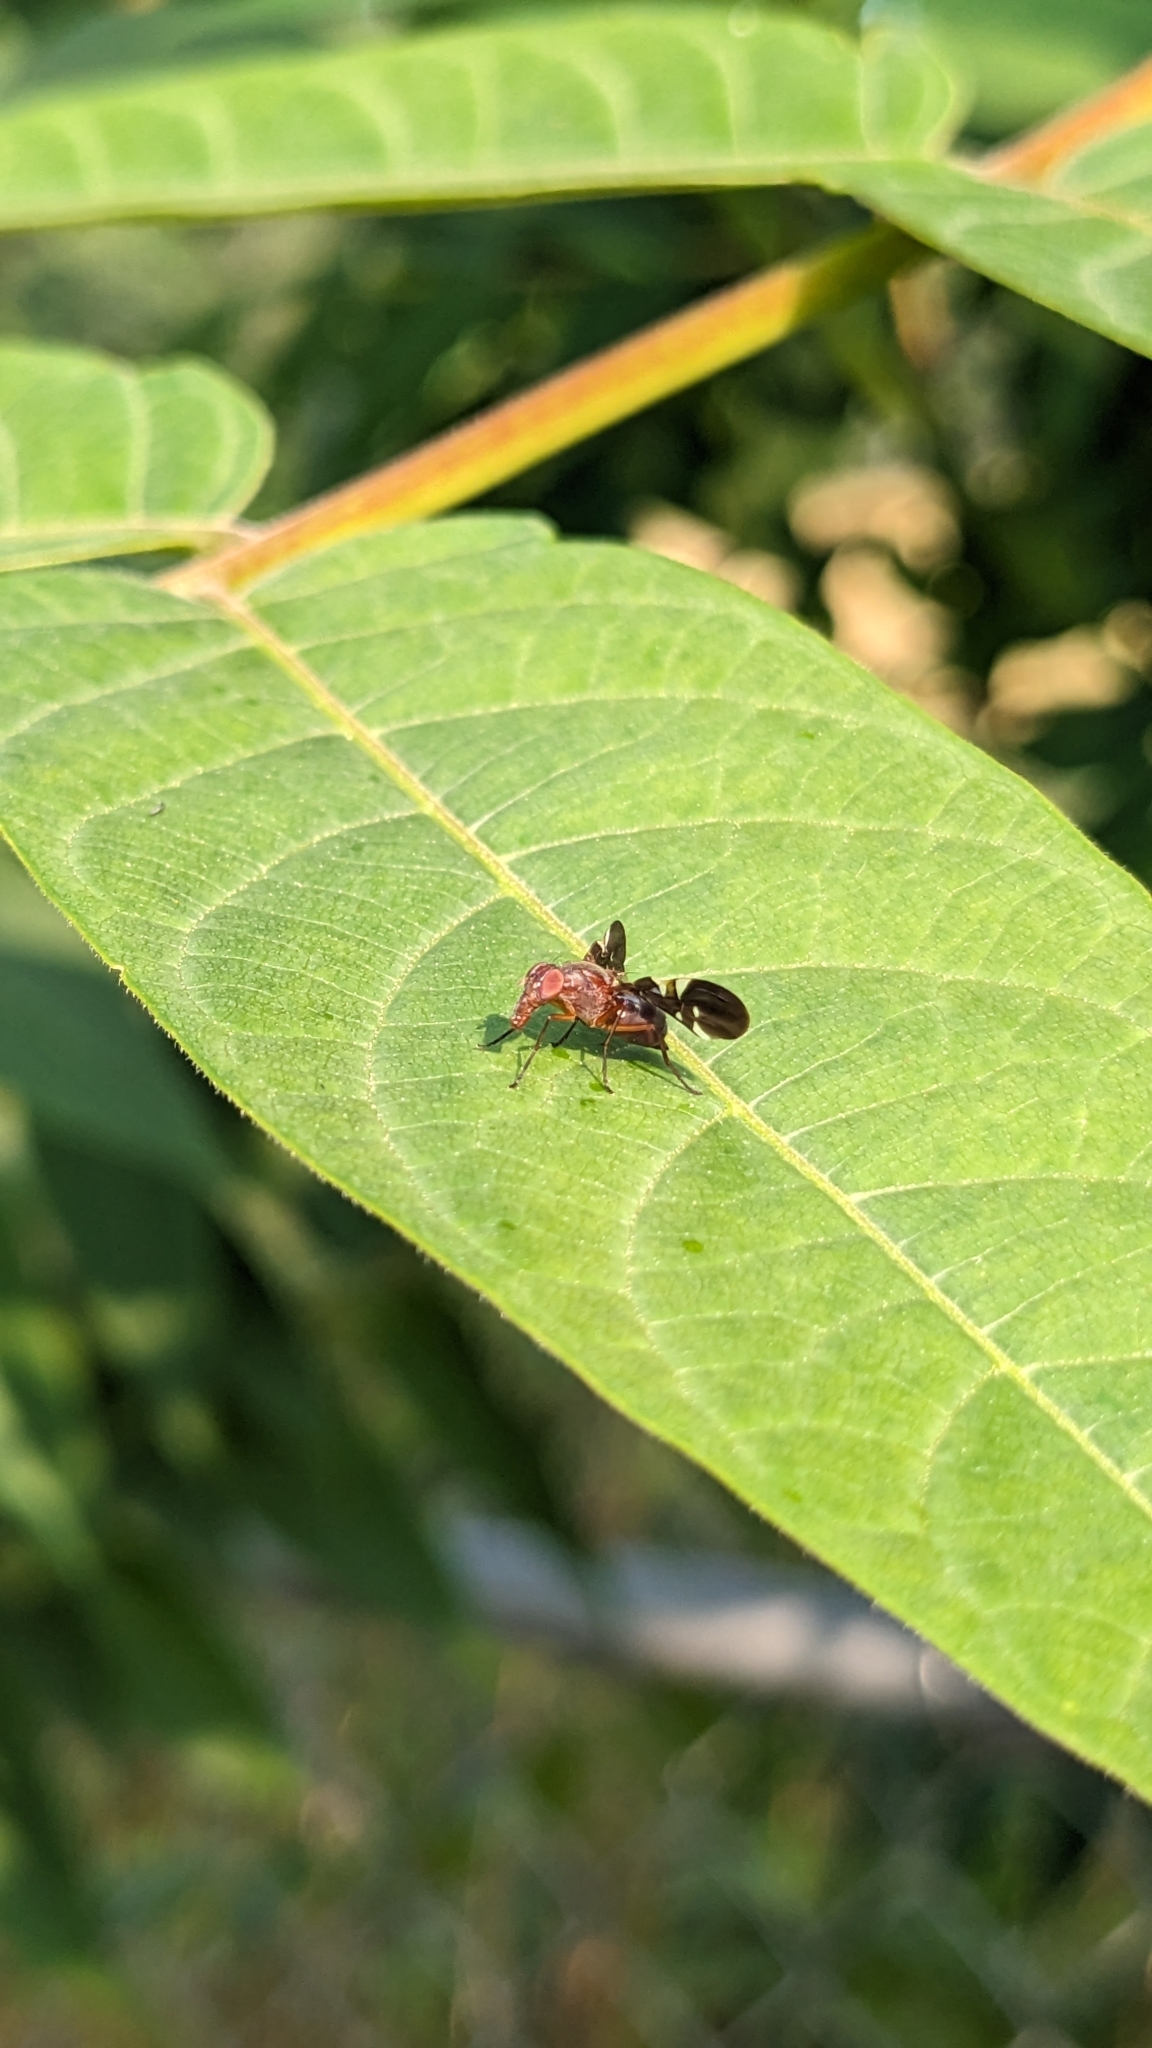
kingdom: Animalia
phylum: Arthropoda
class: Insecta
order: Diptera
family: Ulidiidae
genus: Delphinia
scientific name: Delphinia picta
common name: Common picture-winged fly
